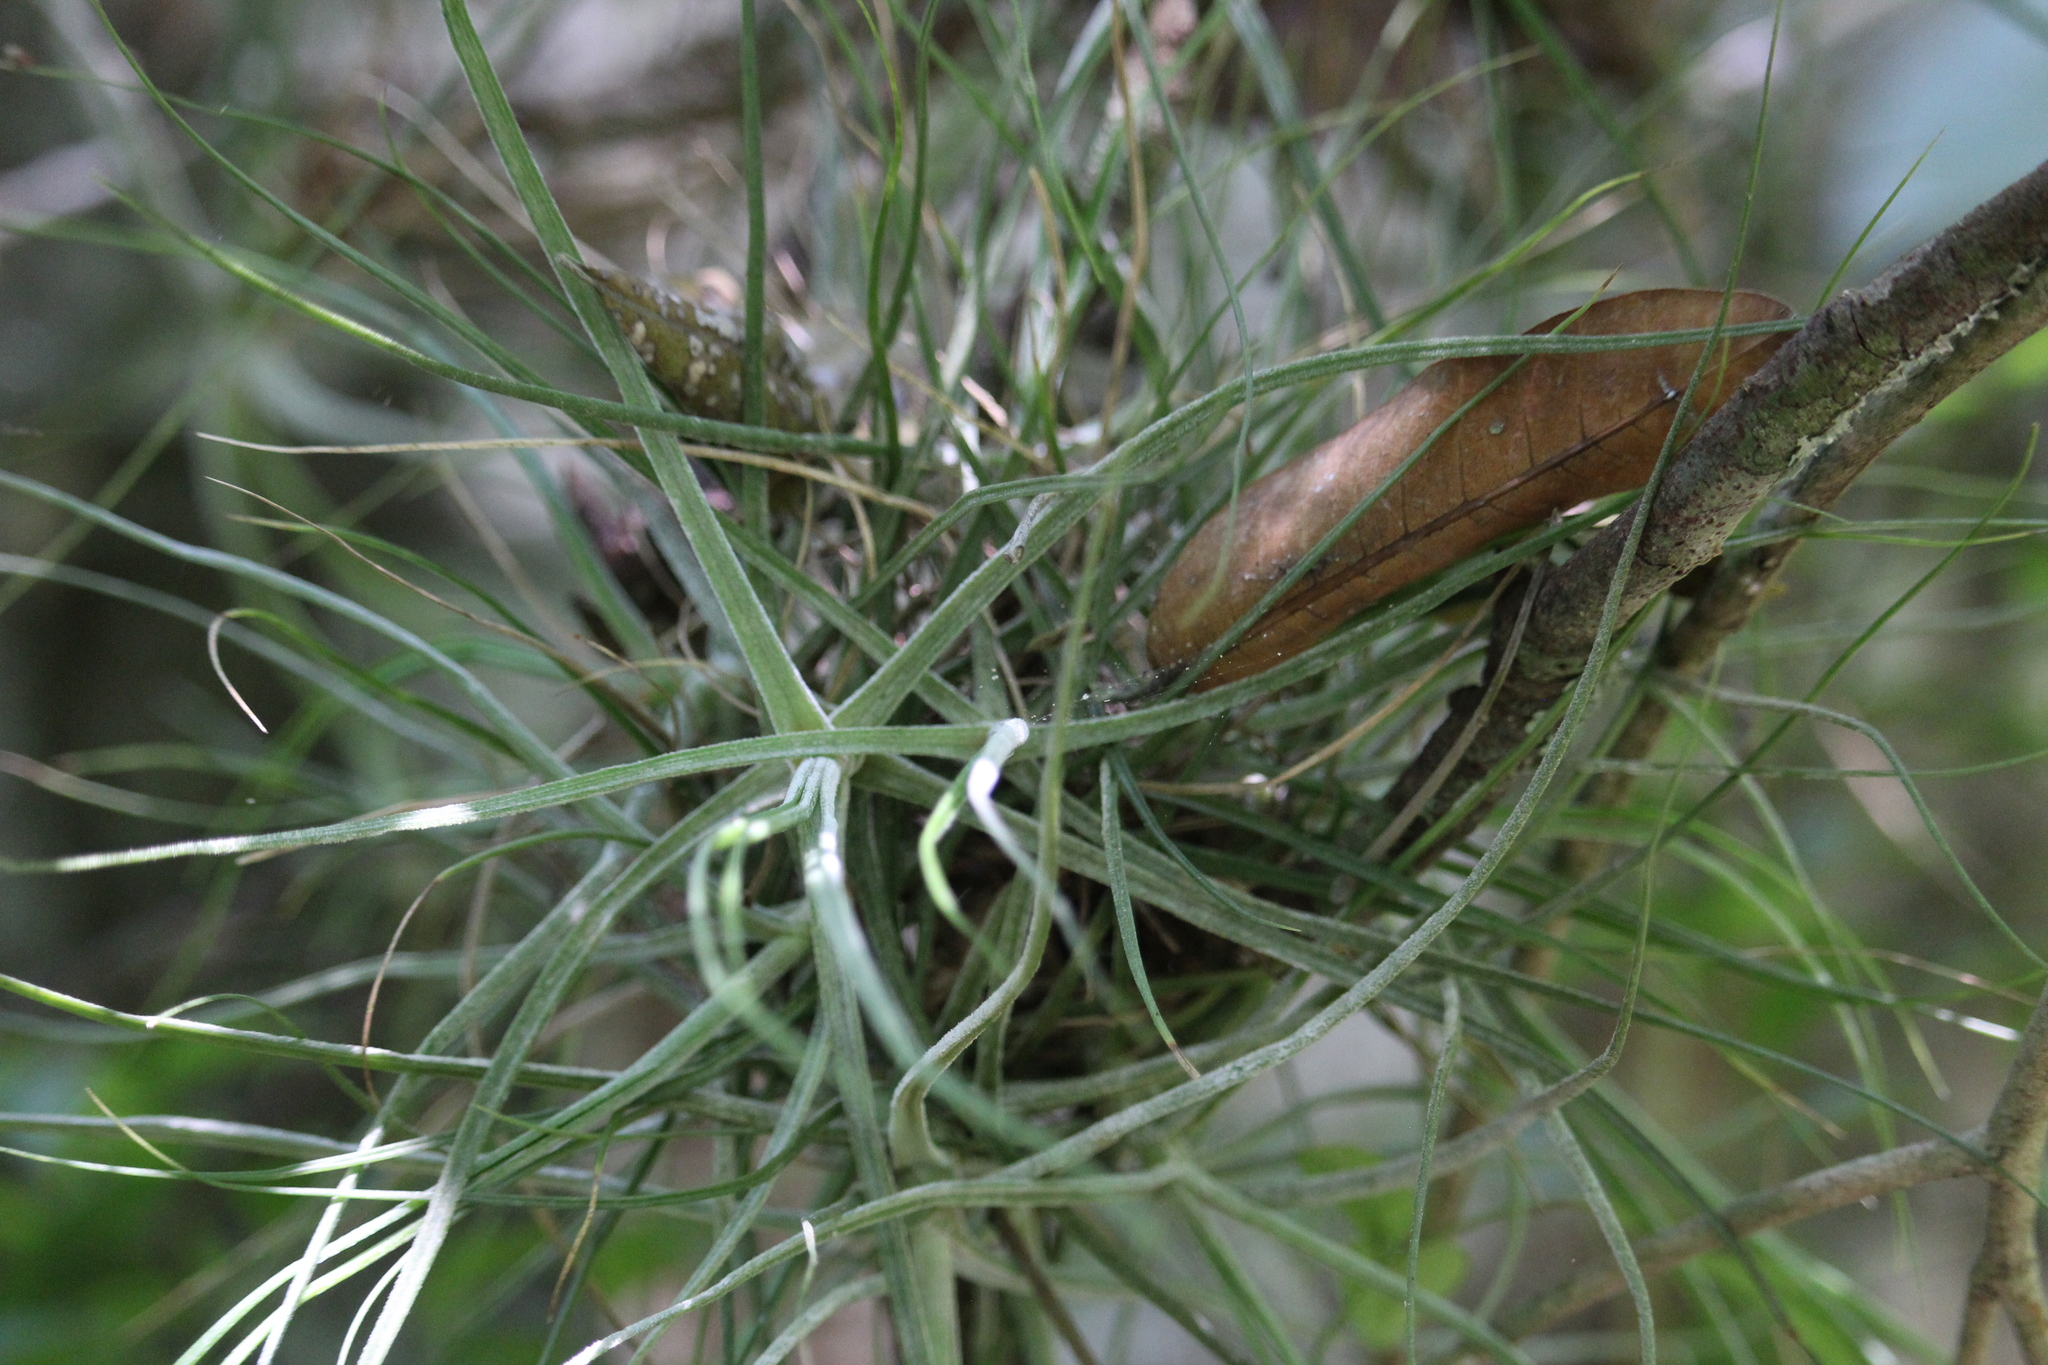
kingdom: Plantae
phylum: Tracheophyta
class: Liliopsida
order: Poales
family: Bromeliaceae
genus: Tillandsia
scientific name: Tillandsia schiedeana
